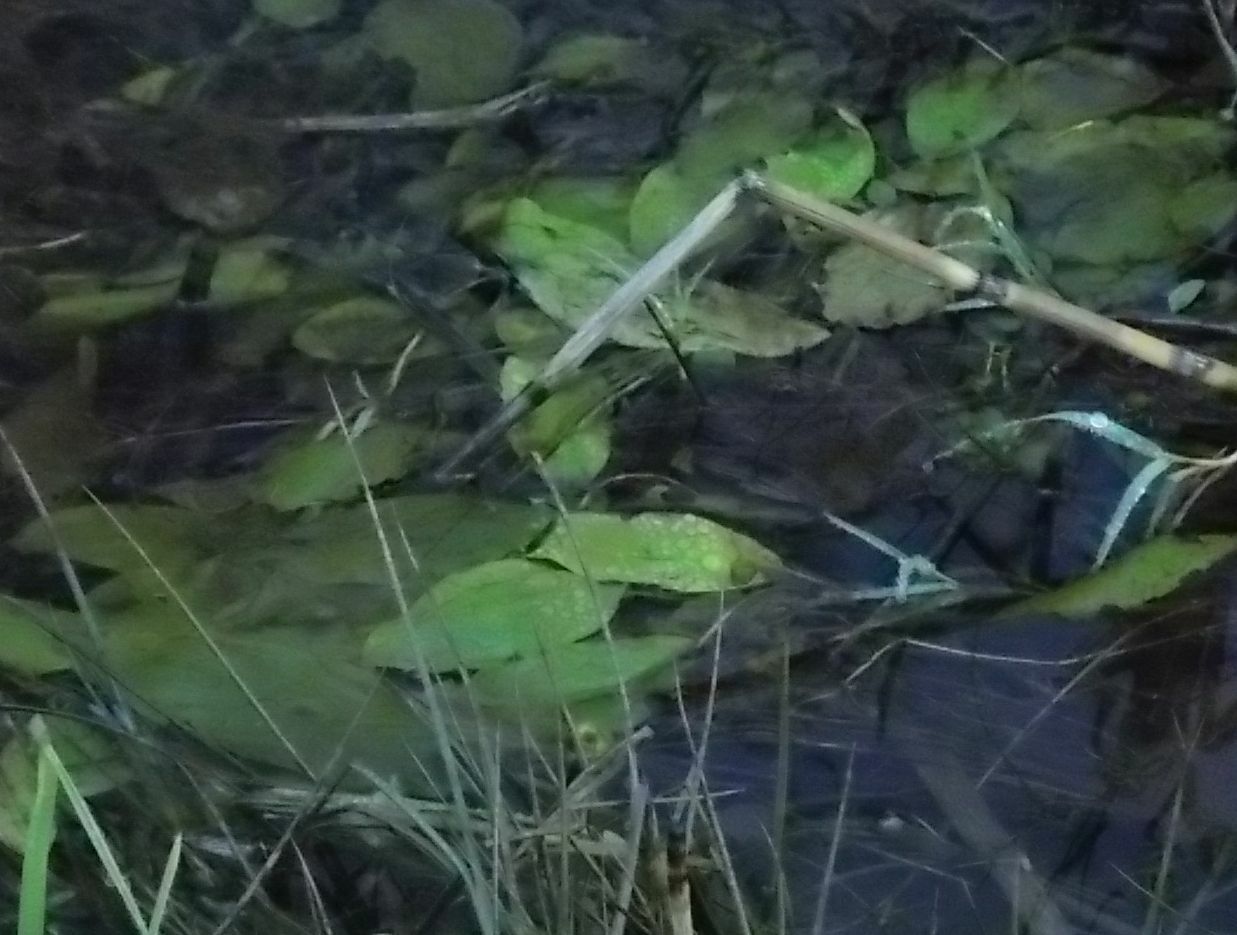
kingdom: Plantae
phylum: Tracheophyta
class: Liliopsida
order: Alismatales
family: Potamogetonaceae
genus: Potamogeton
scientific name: Potamogeton polygonifolius
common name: Bog pondweed
